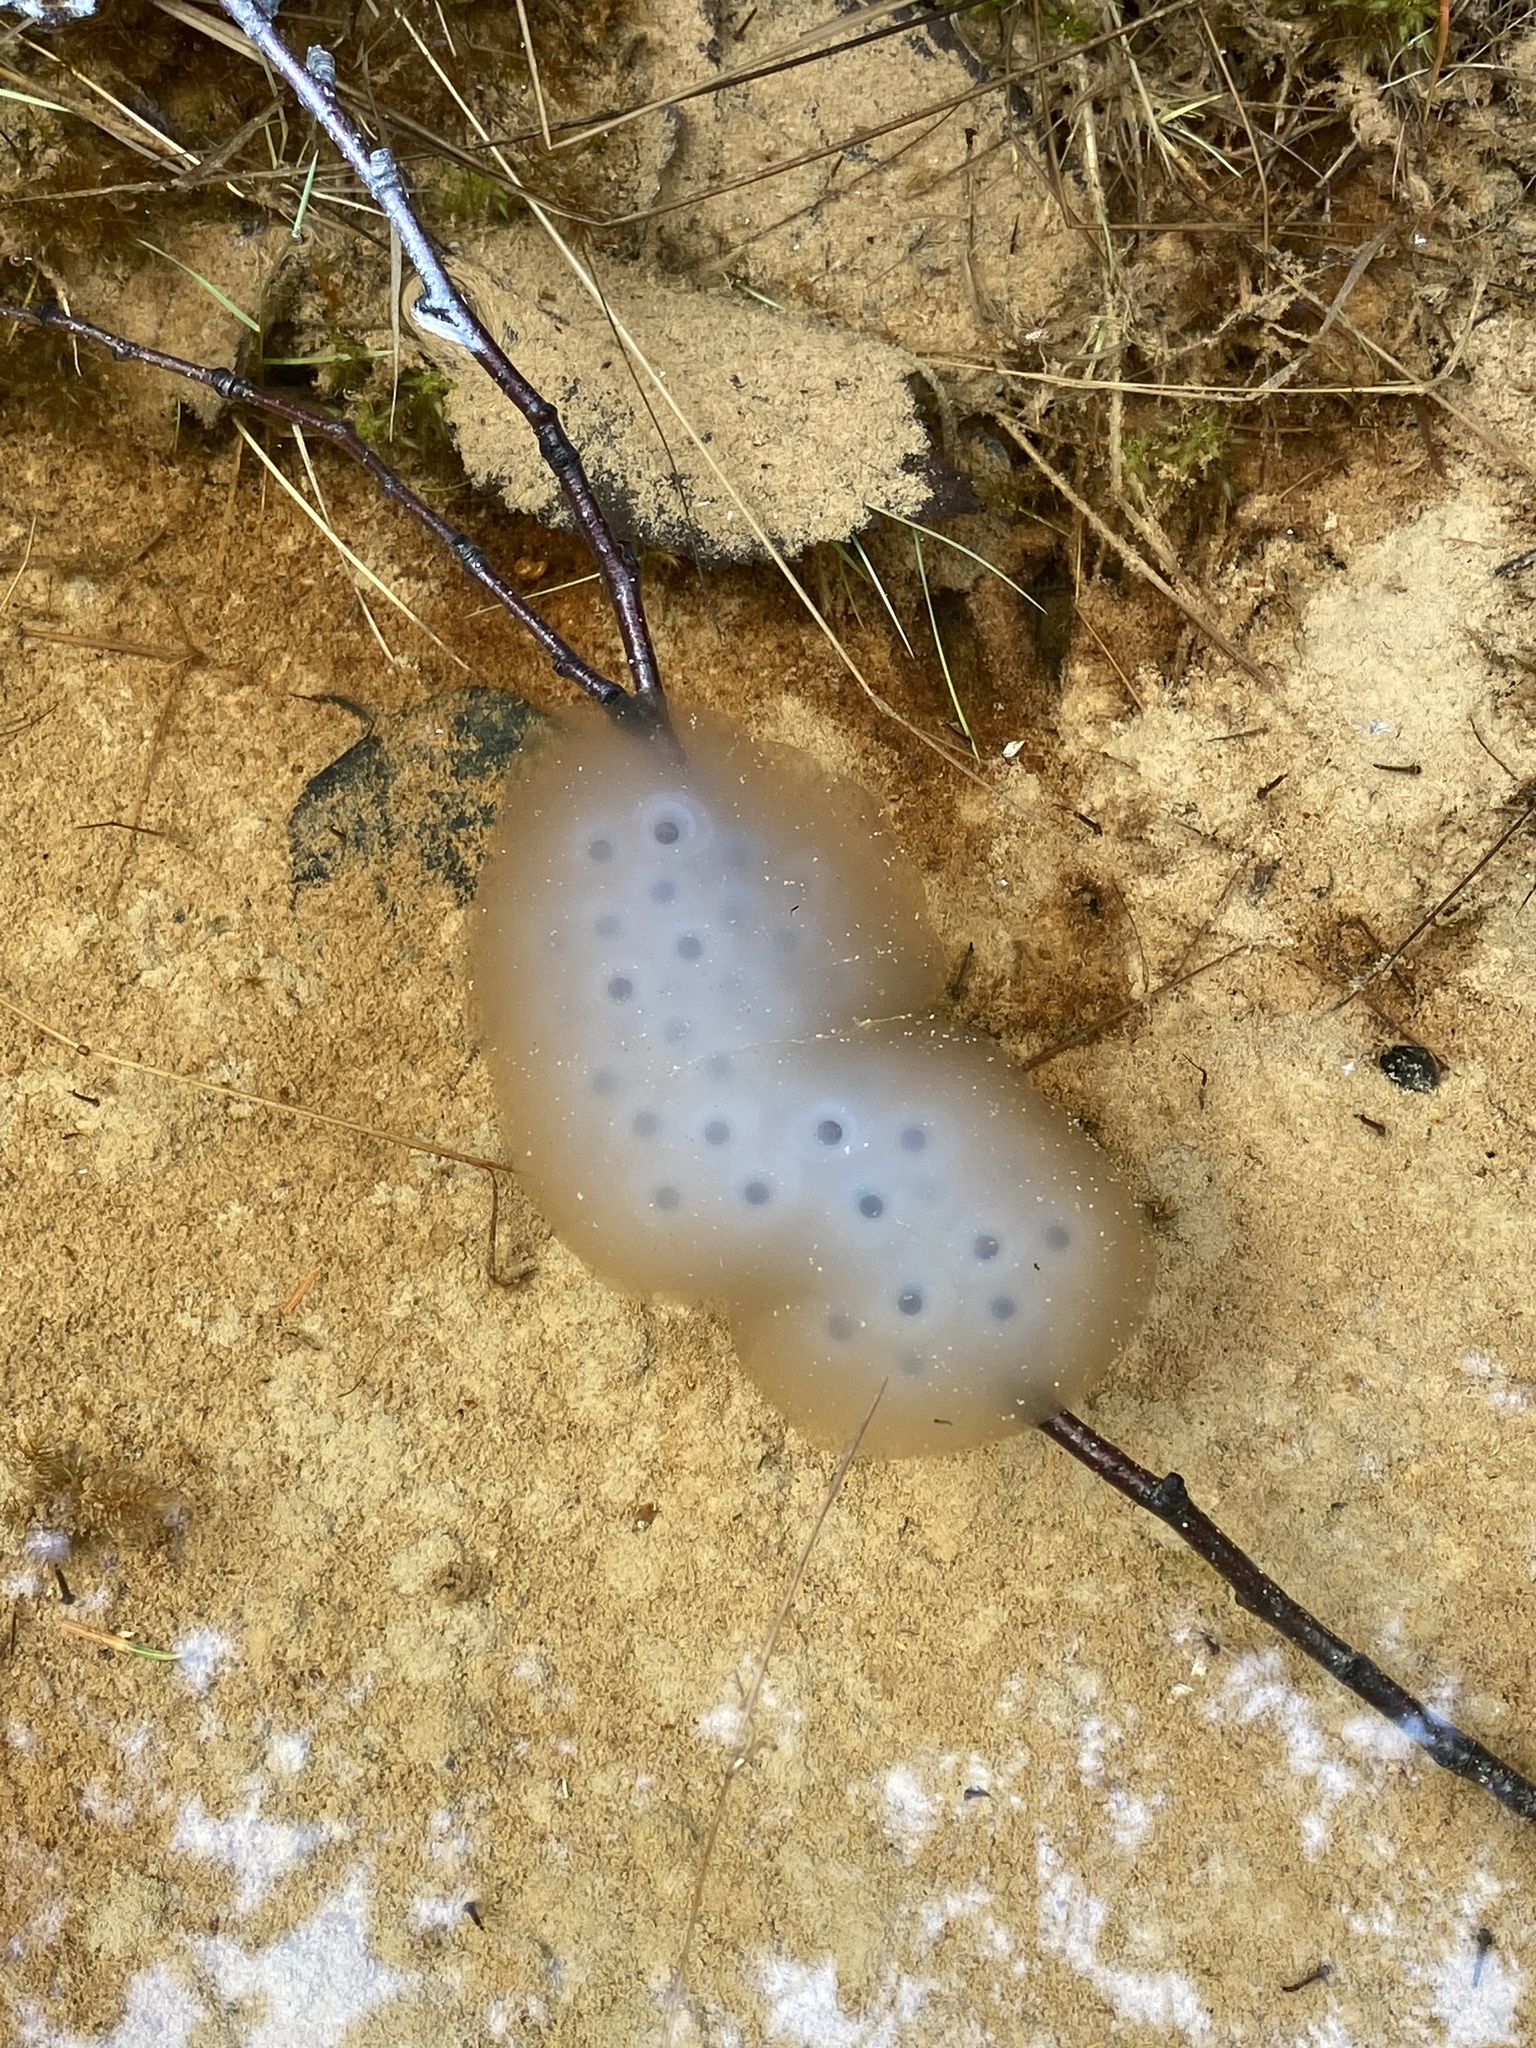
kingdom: Animalia
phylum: Chordata
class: Amphibia
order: Caudata
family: Ambystomatidae
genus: Ambystoma
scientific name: Ambystoma maculatum
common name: Spotted salamander
